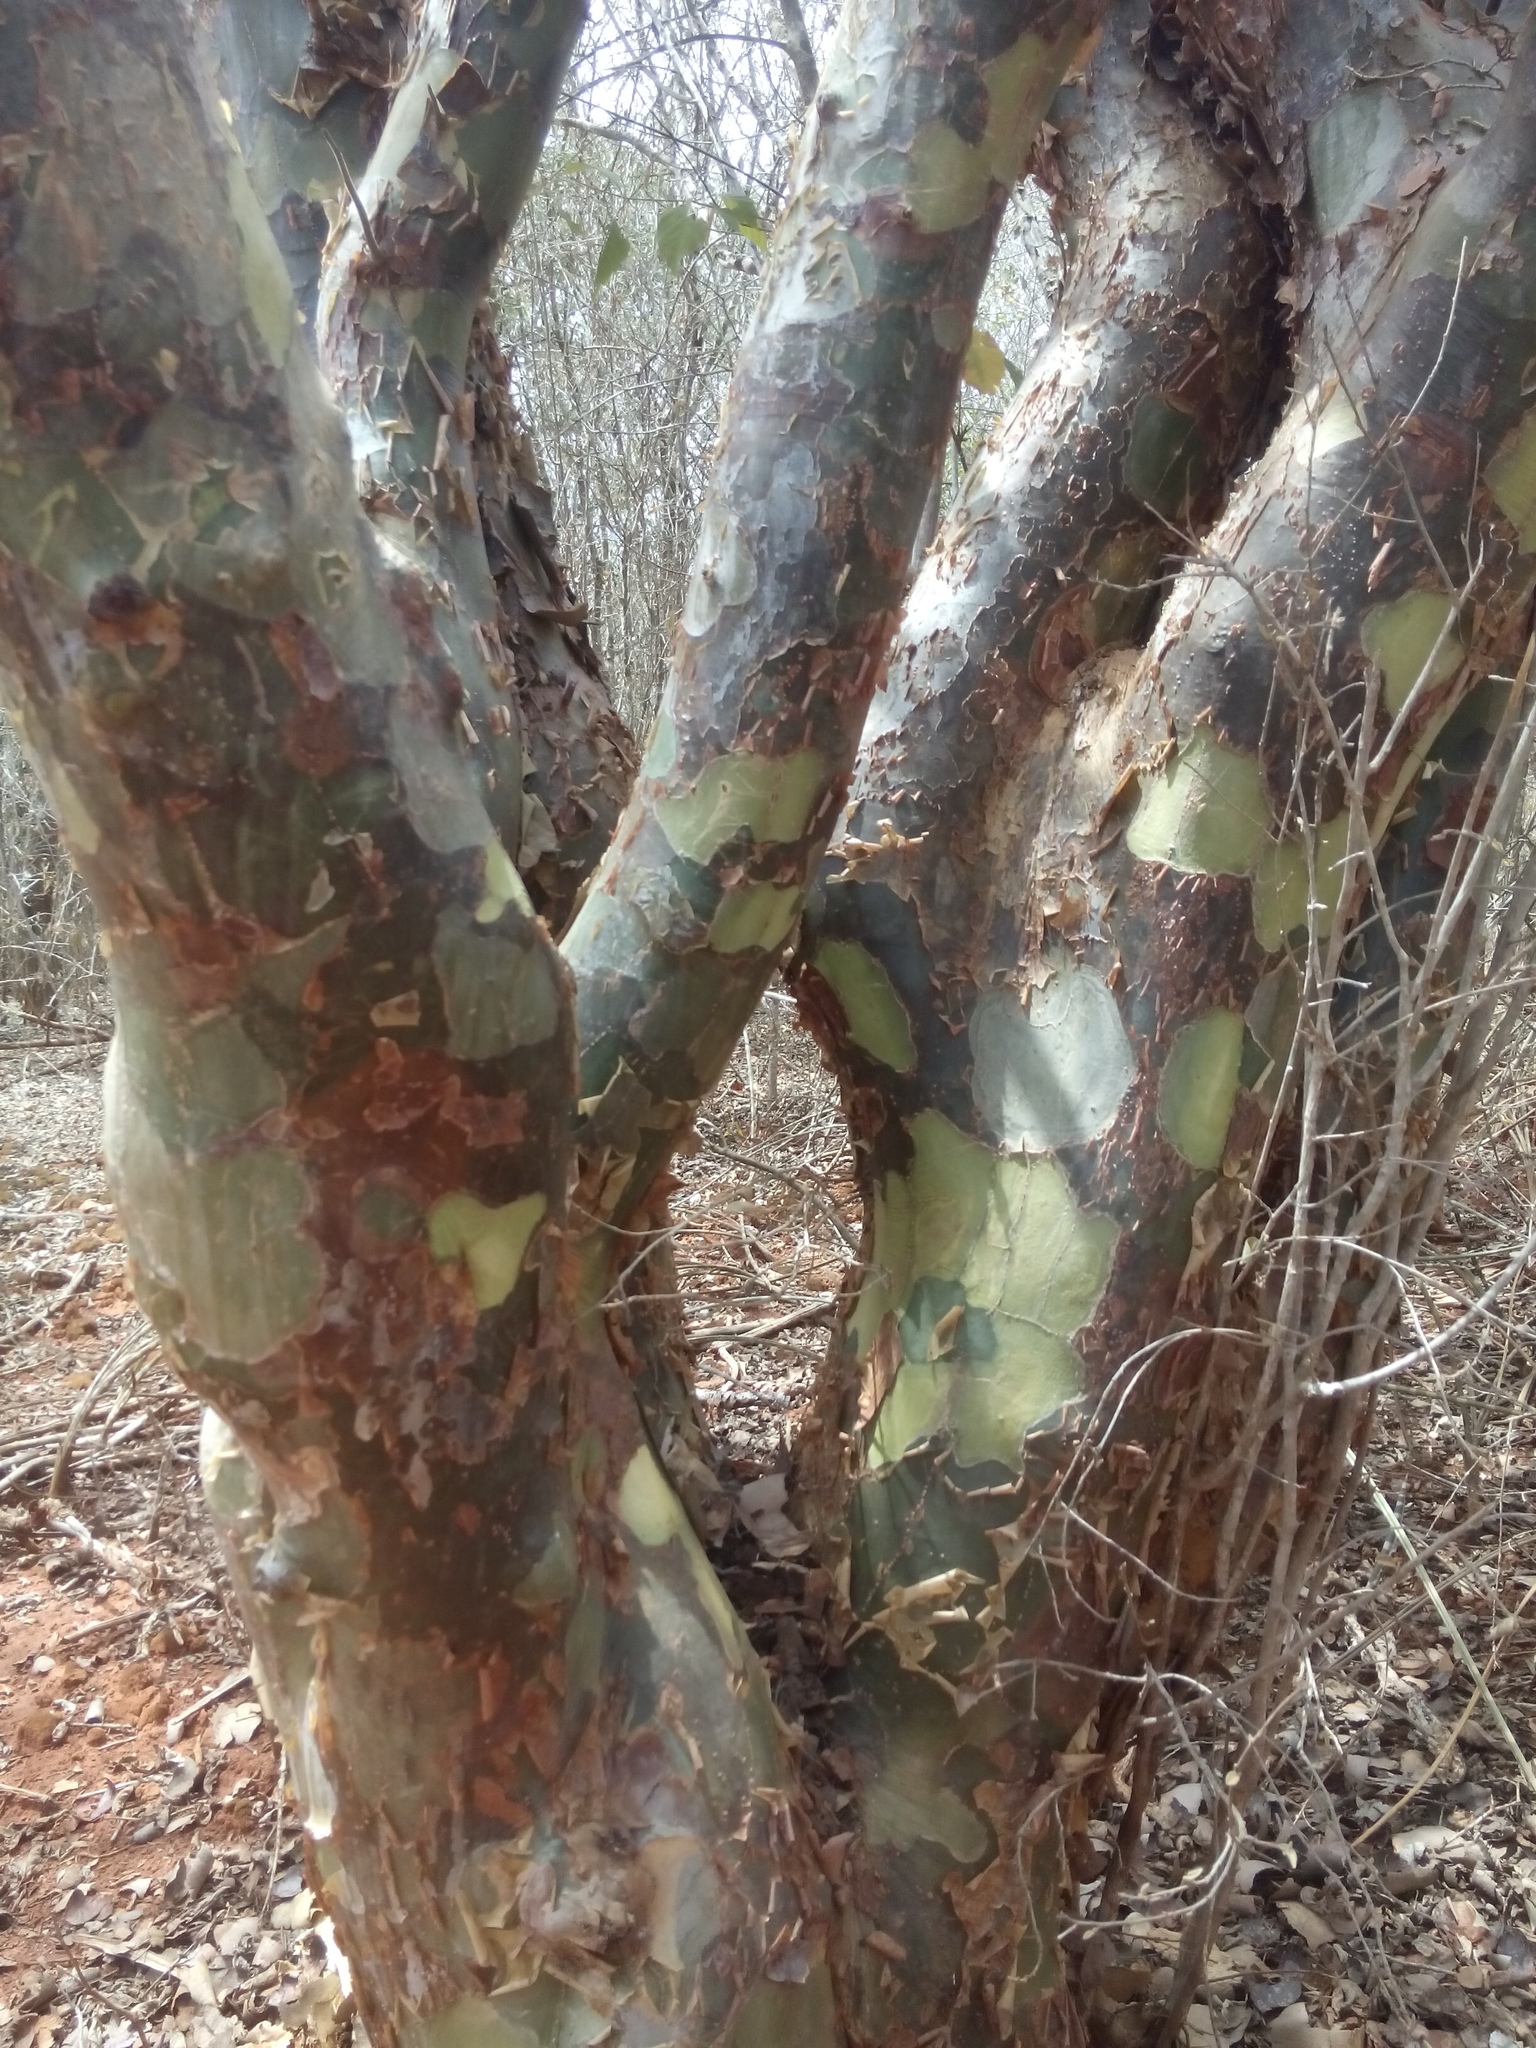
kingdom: Plantae
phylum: Tracheophyta
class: Magnoliopsida
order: Sapindales
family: Burseraceae
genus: Bursera
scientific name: Bursera leptophloeos
